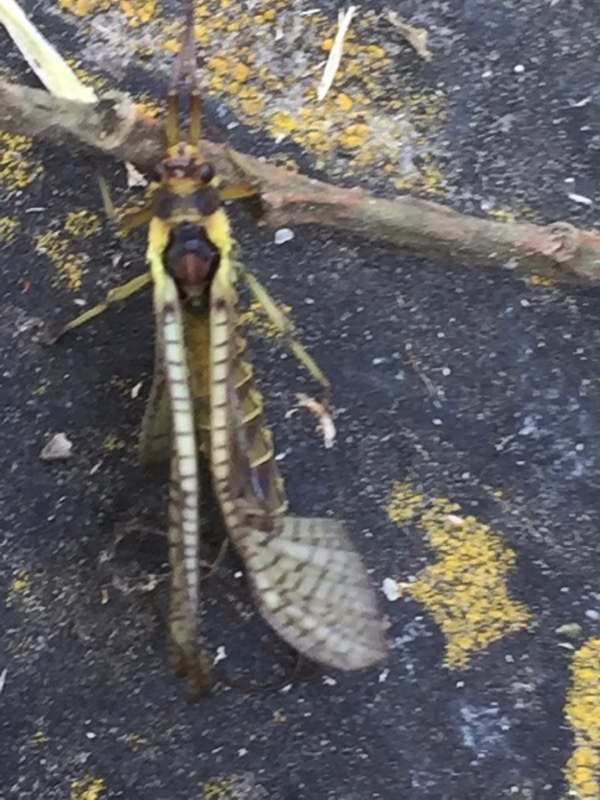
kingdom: Animalia
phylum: Arthropoda
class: Insecta
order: Ephemeroptera
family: Ephemeridae
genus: Ephemera
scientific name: Ephemera vulgata
